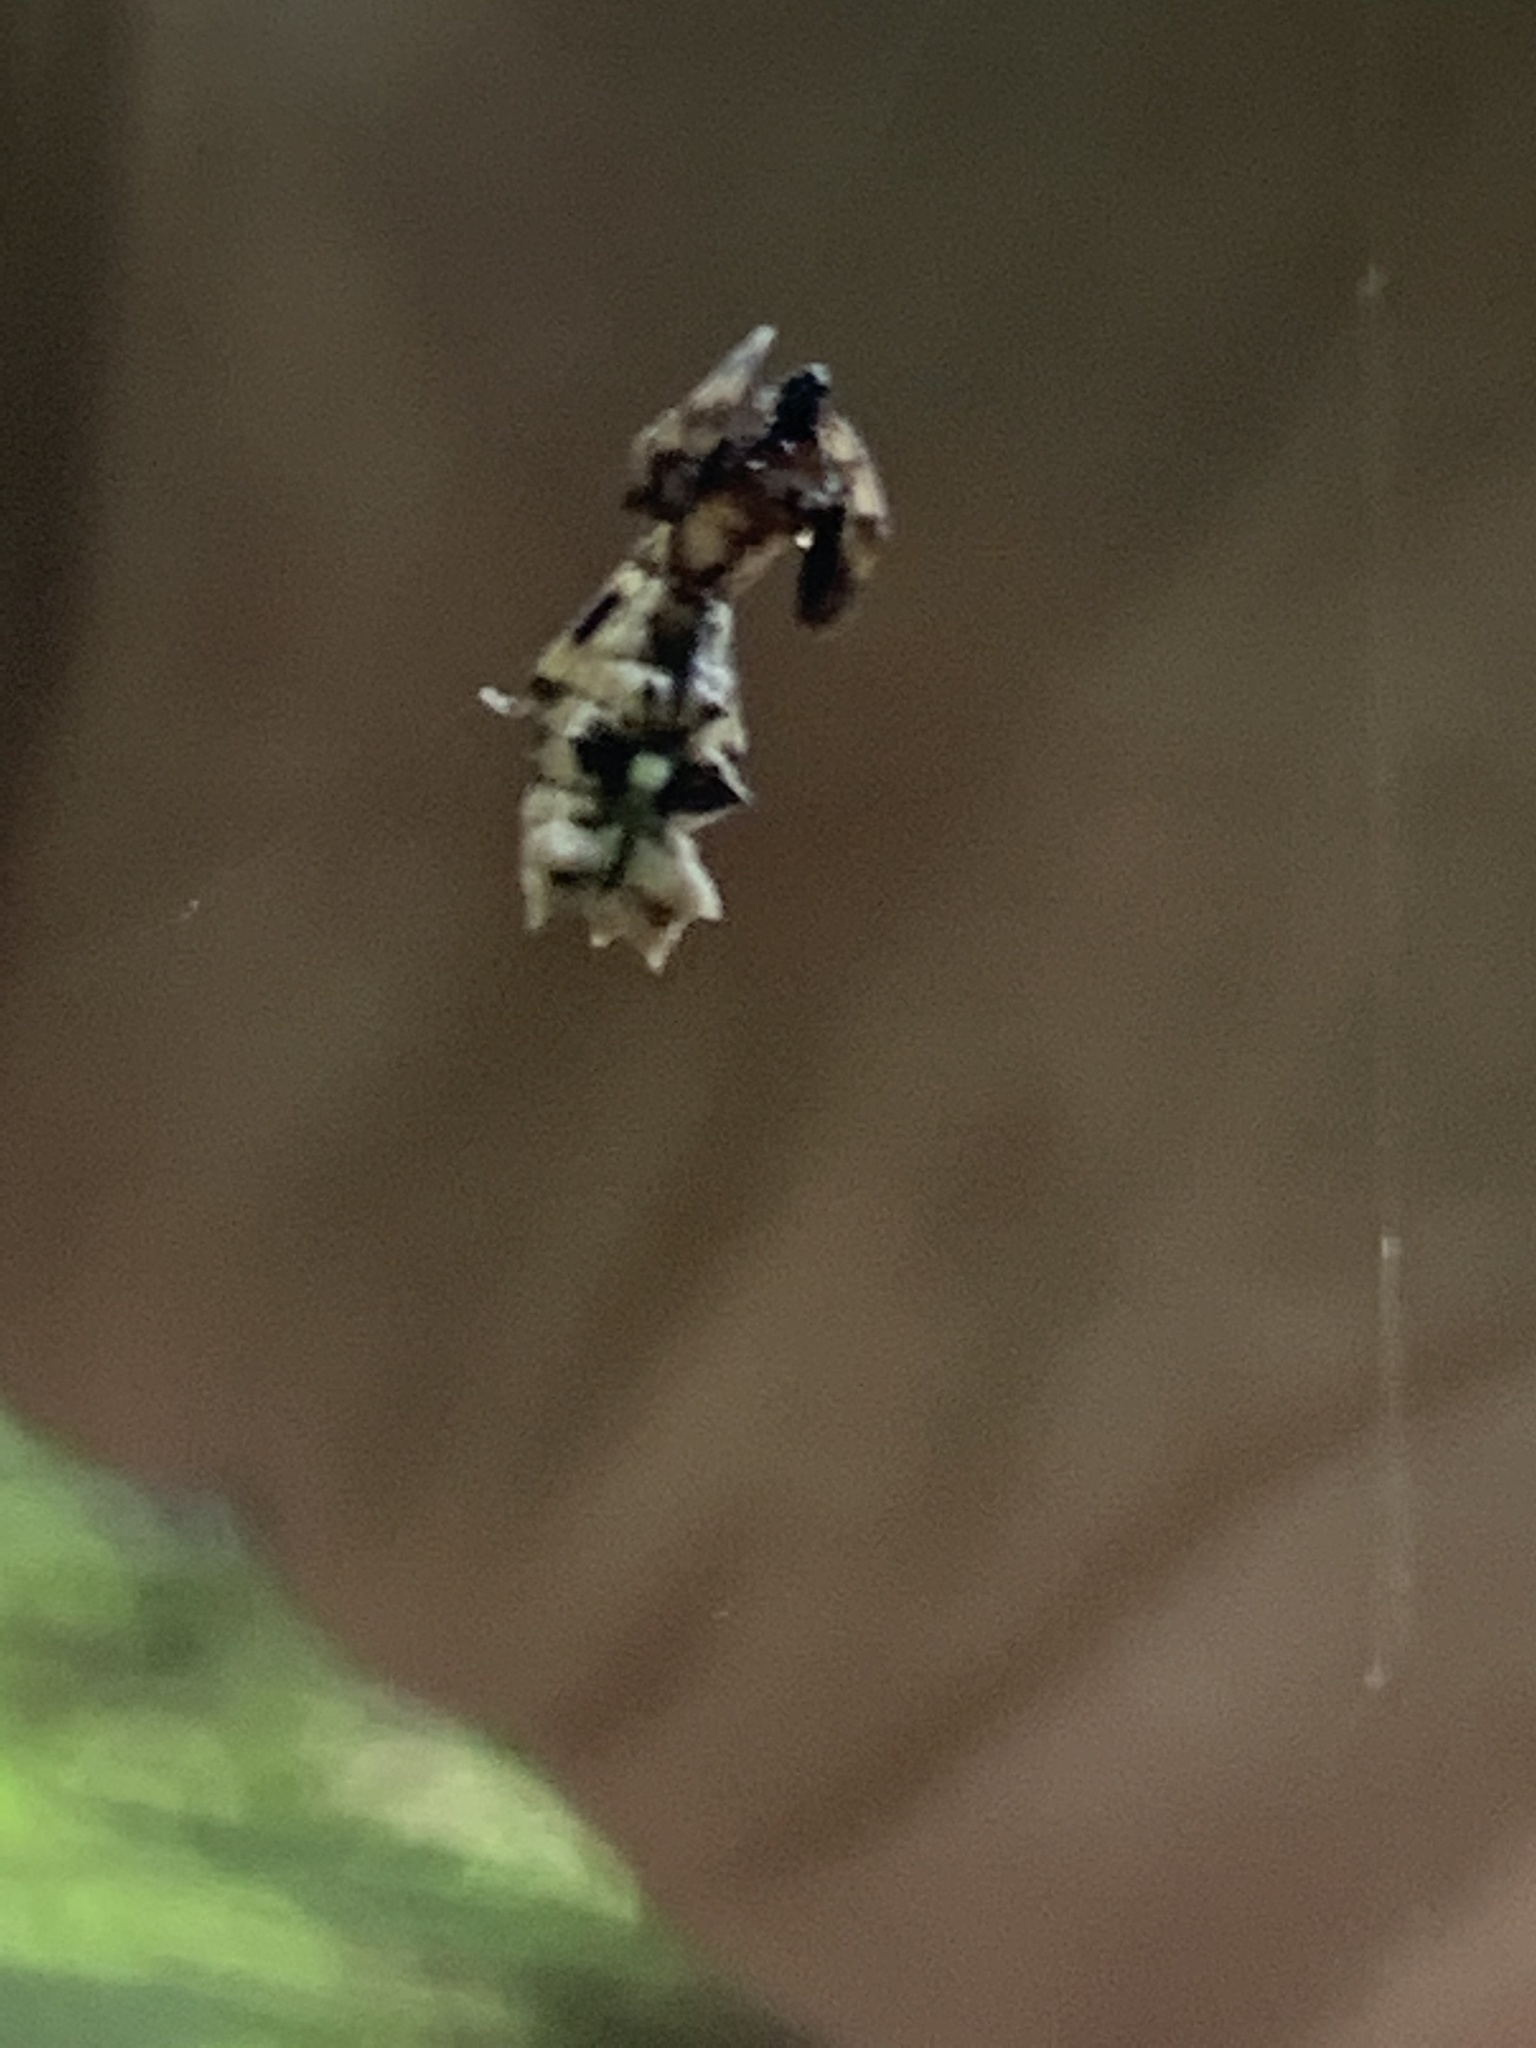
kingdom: Animalia
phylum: Arthropoda
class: Arachnida
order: Araneae
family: Araneidae
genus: Micrathena
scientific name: Micrathena gracilis
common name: Orb weavers
